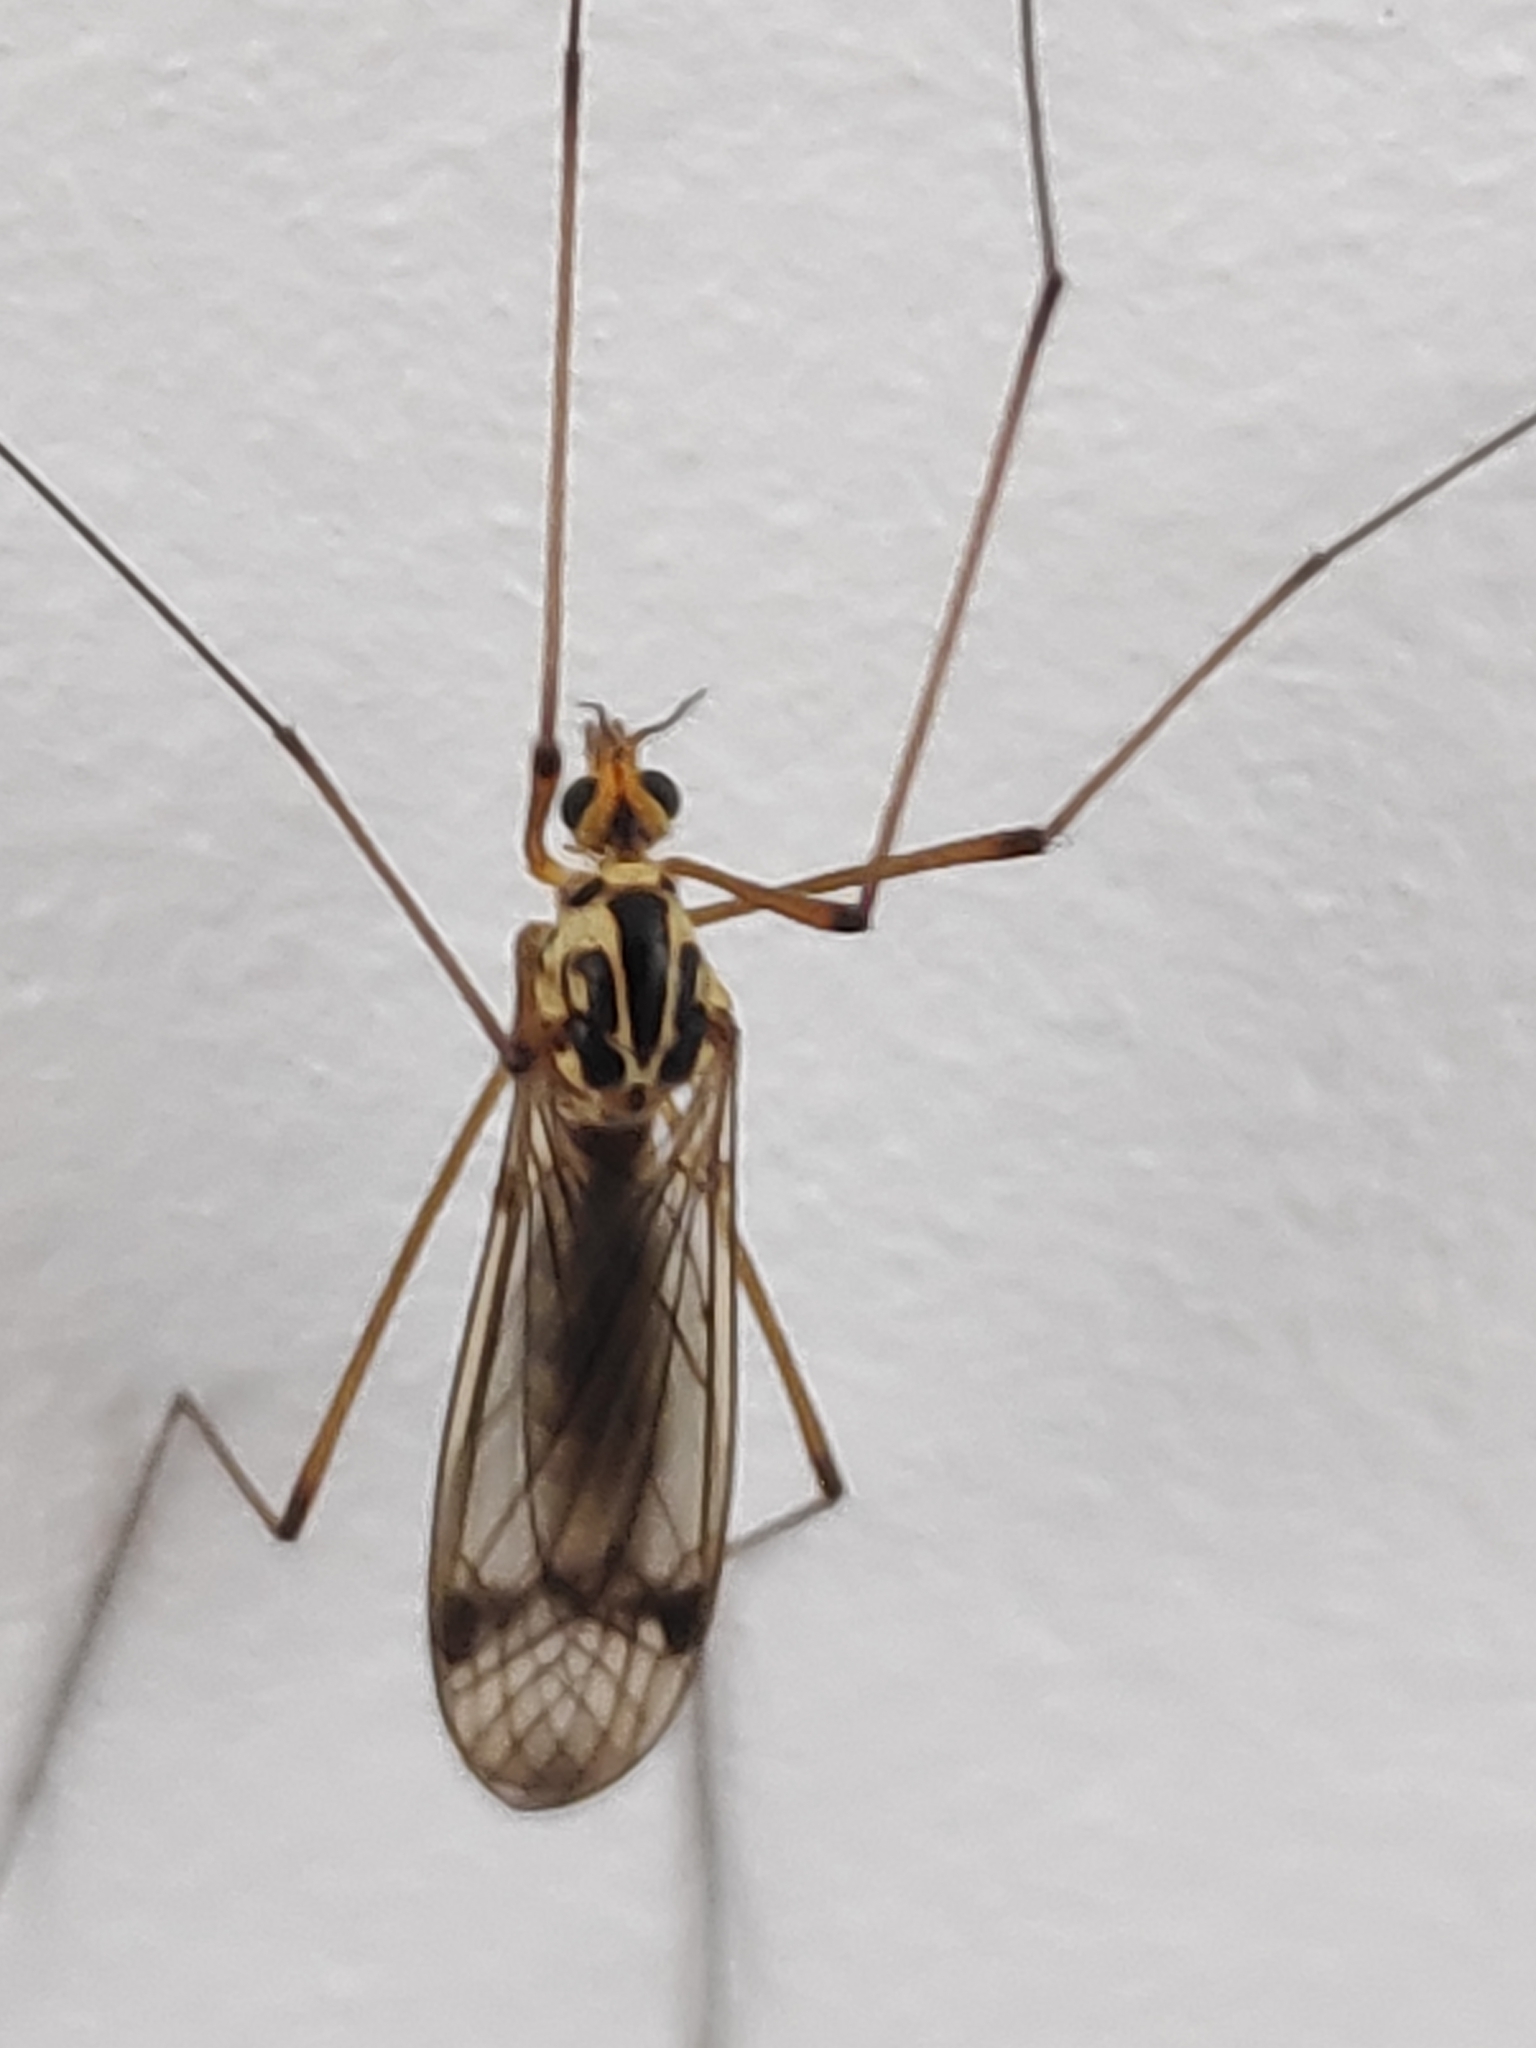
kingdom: Animalia
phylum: Arthropoda
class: Insecta
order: Diptera
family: Tipulidae
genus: Nephrotoma
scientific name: Nephrotoma quadrifaria
